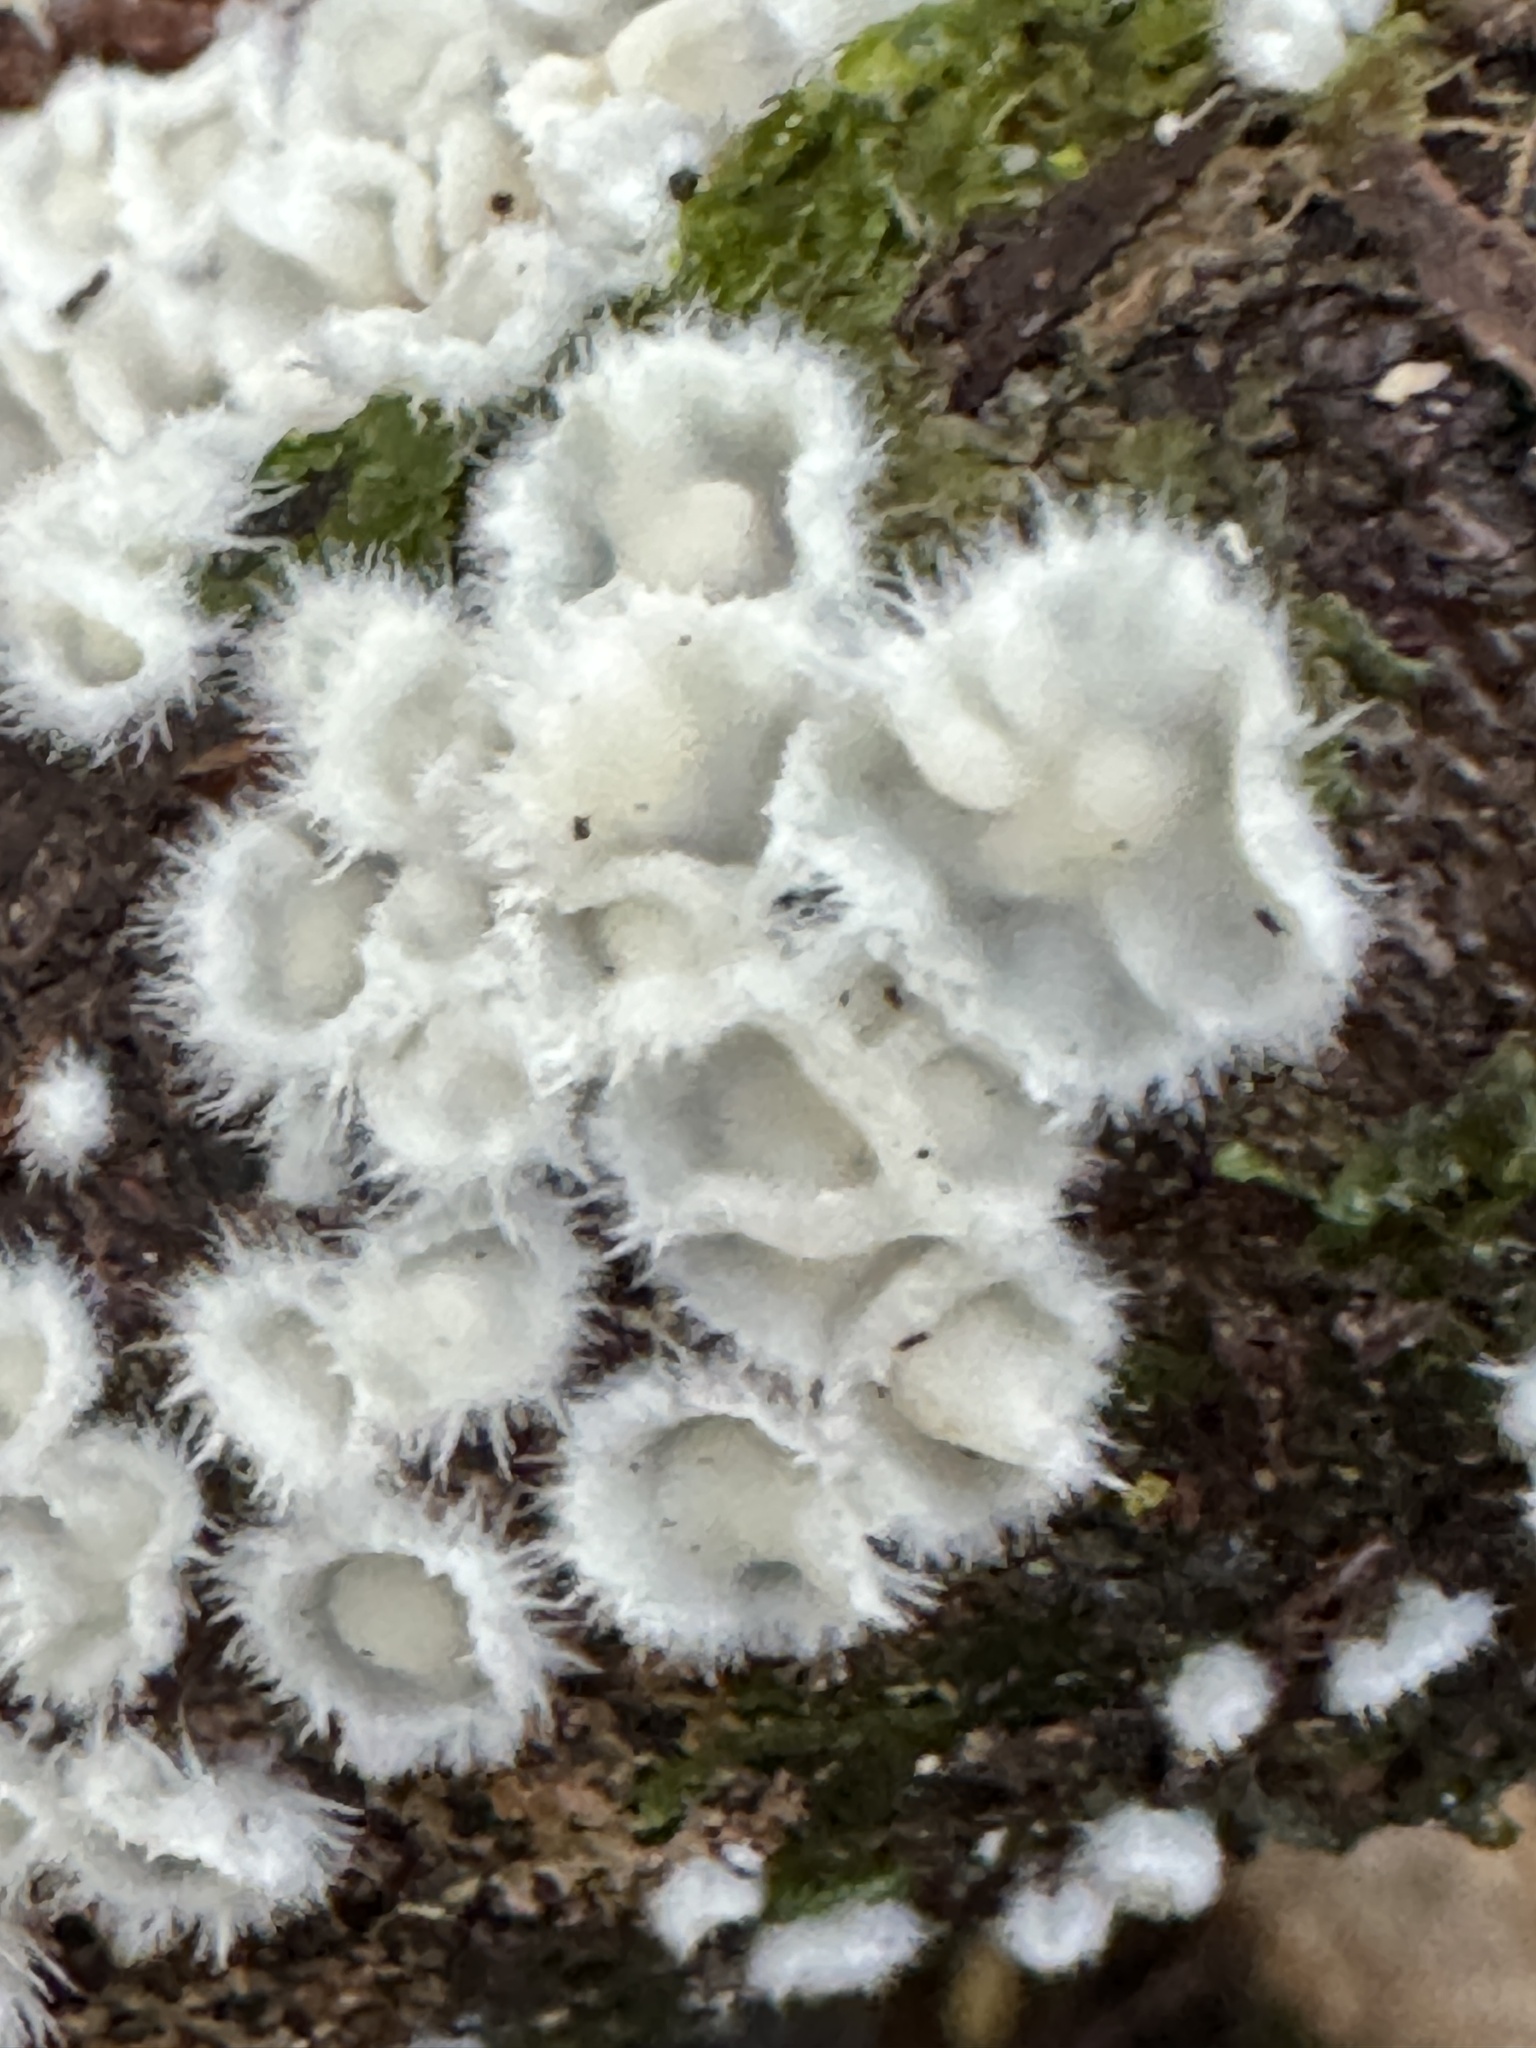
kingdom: Fungi
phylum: Basidiomycota
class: Agaricomycetes
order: Russulales
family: Stereaceae
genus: Stereodiscus
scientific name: Stereodiscus parmuliformis
